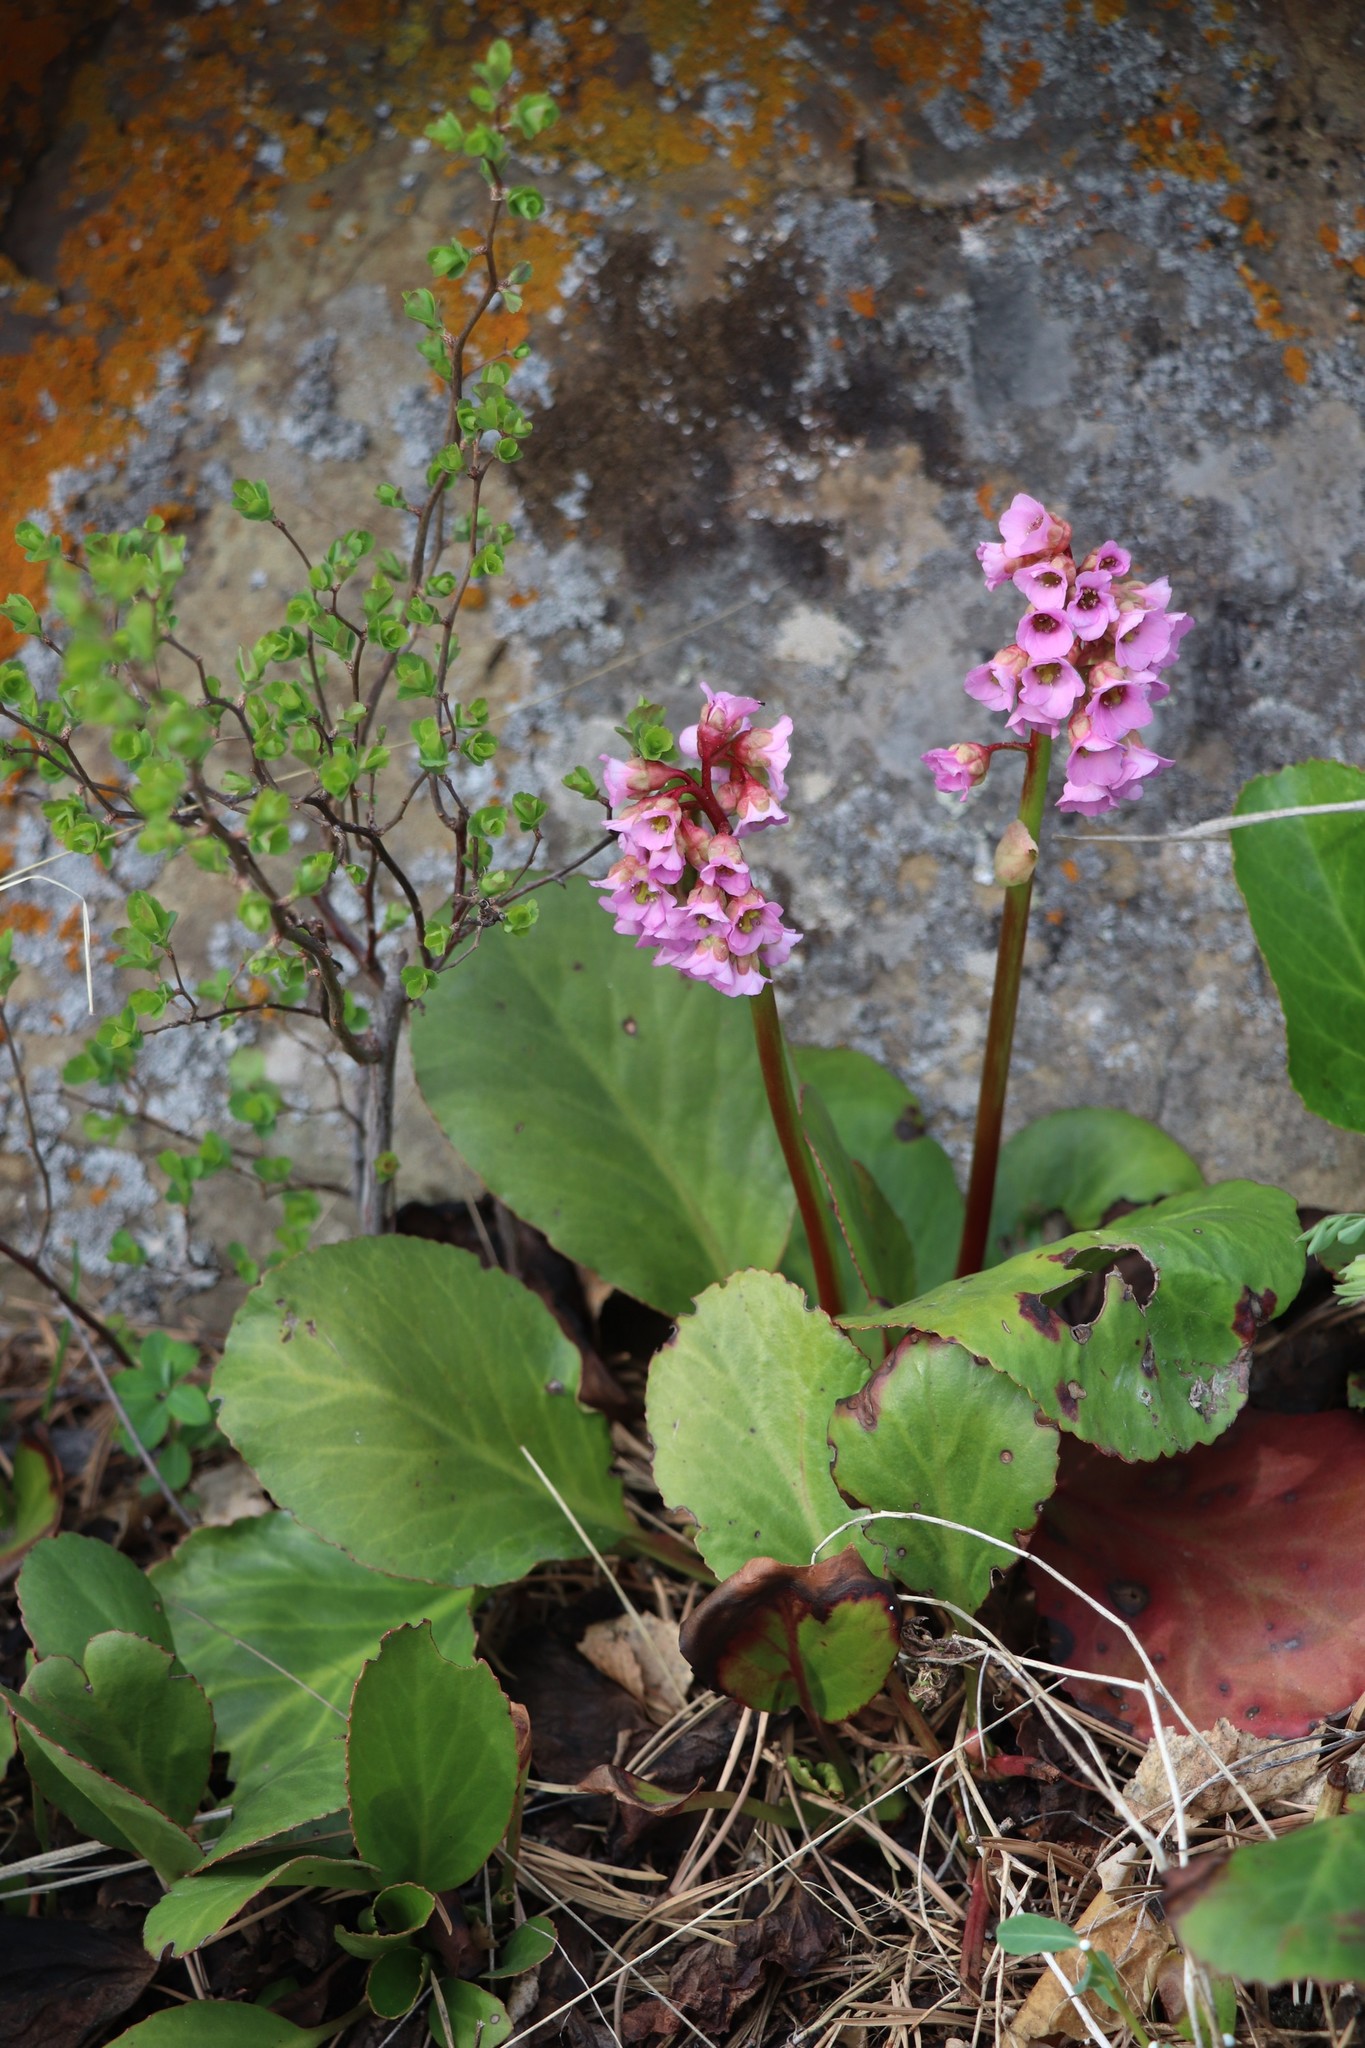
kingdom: Plantae
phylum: Tracheophyta
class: Magnoliopsida
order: Saxifragales
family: Saxifragaceae
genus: Bergenia
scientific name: Bergenia crassifolia
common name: Elephant-ears
